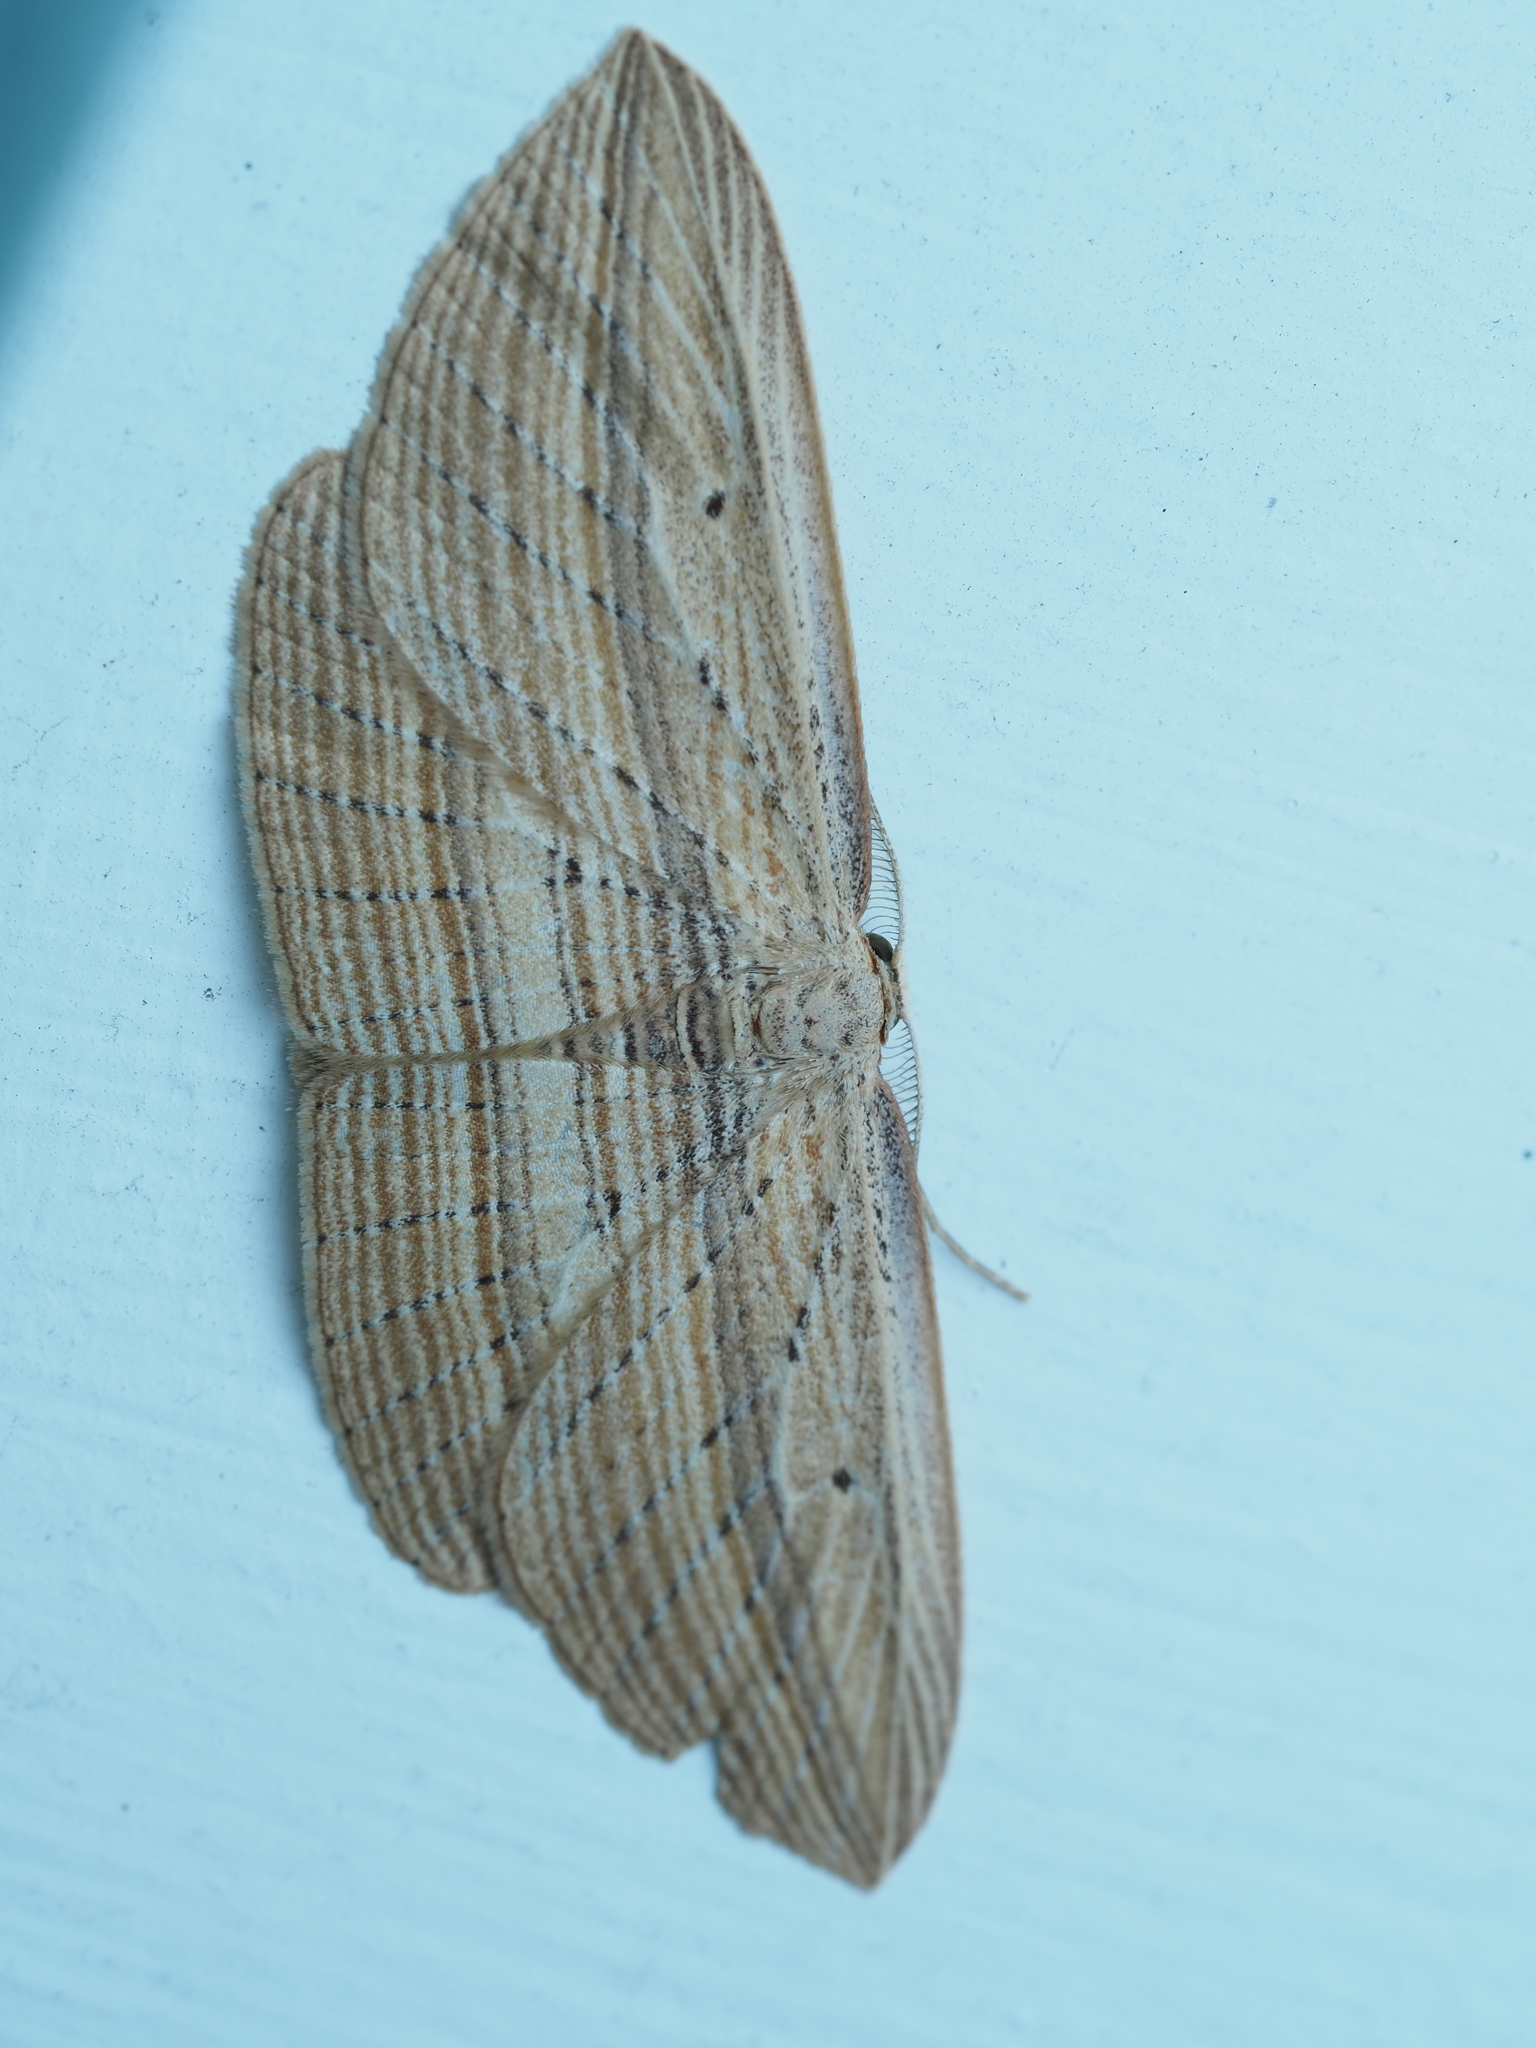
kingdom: Animalia
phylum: Arthropoda
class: Insecta
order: Lepidoptera
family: Geometridae
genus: Epiphryne
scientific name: Epiphryne verriculata
